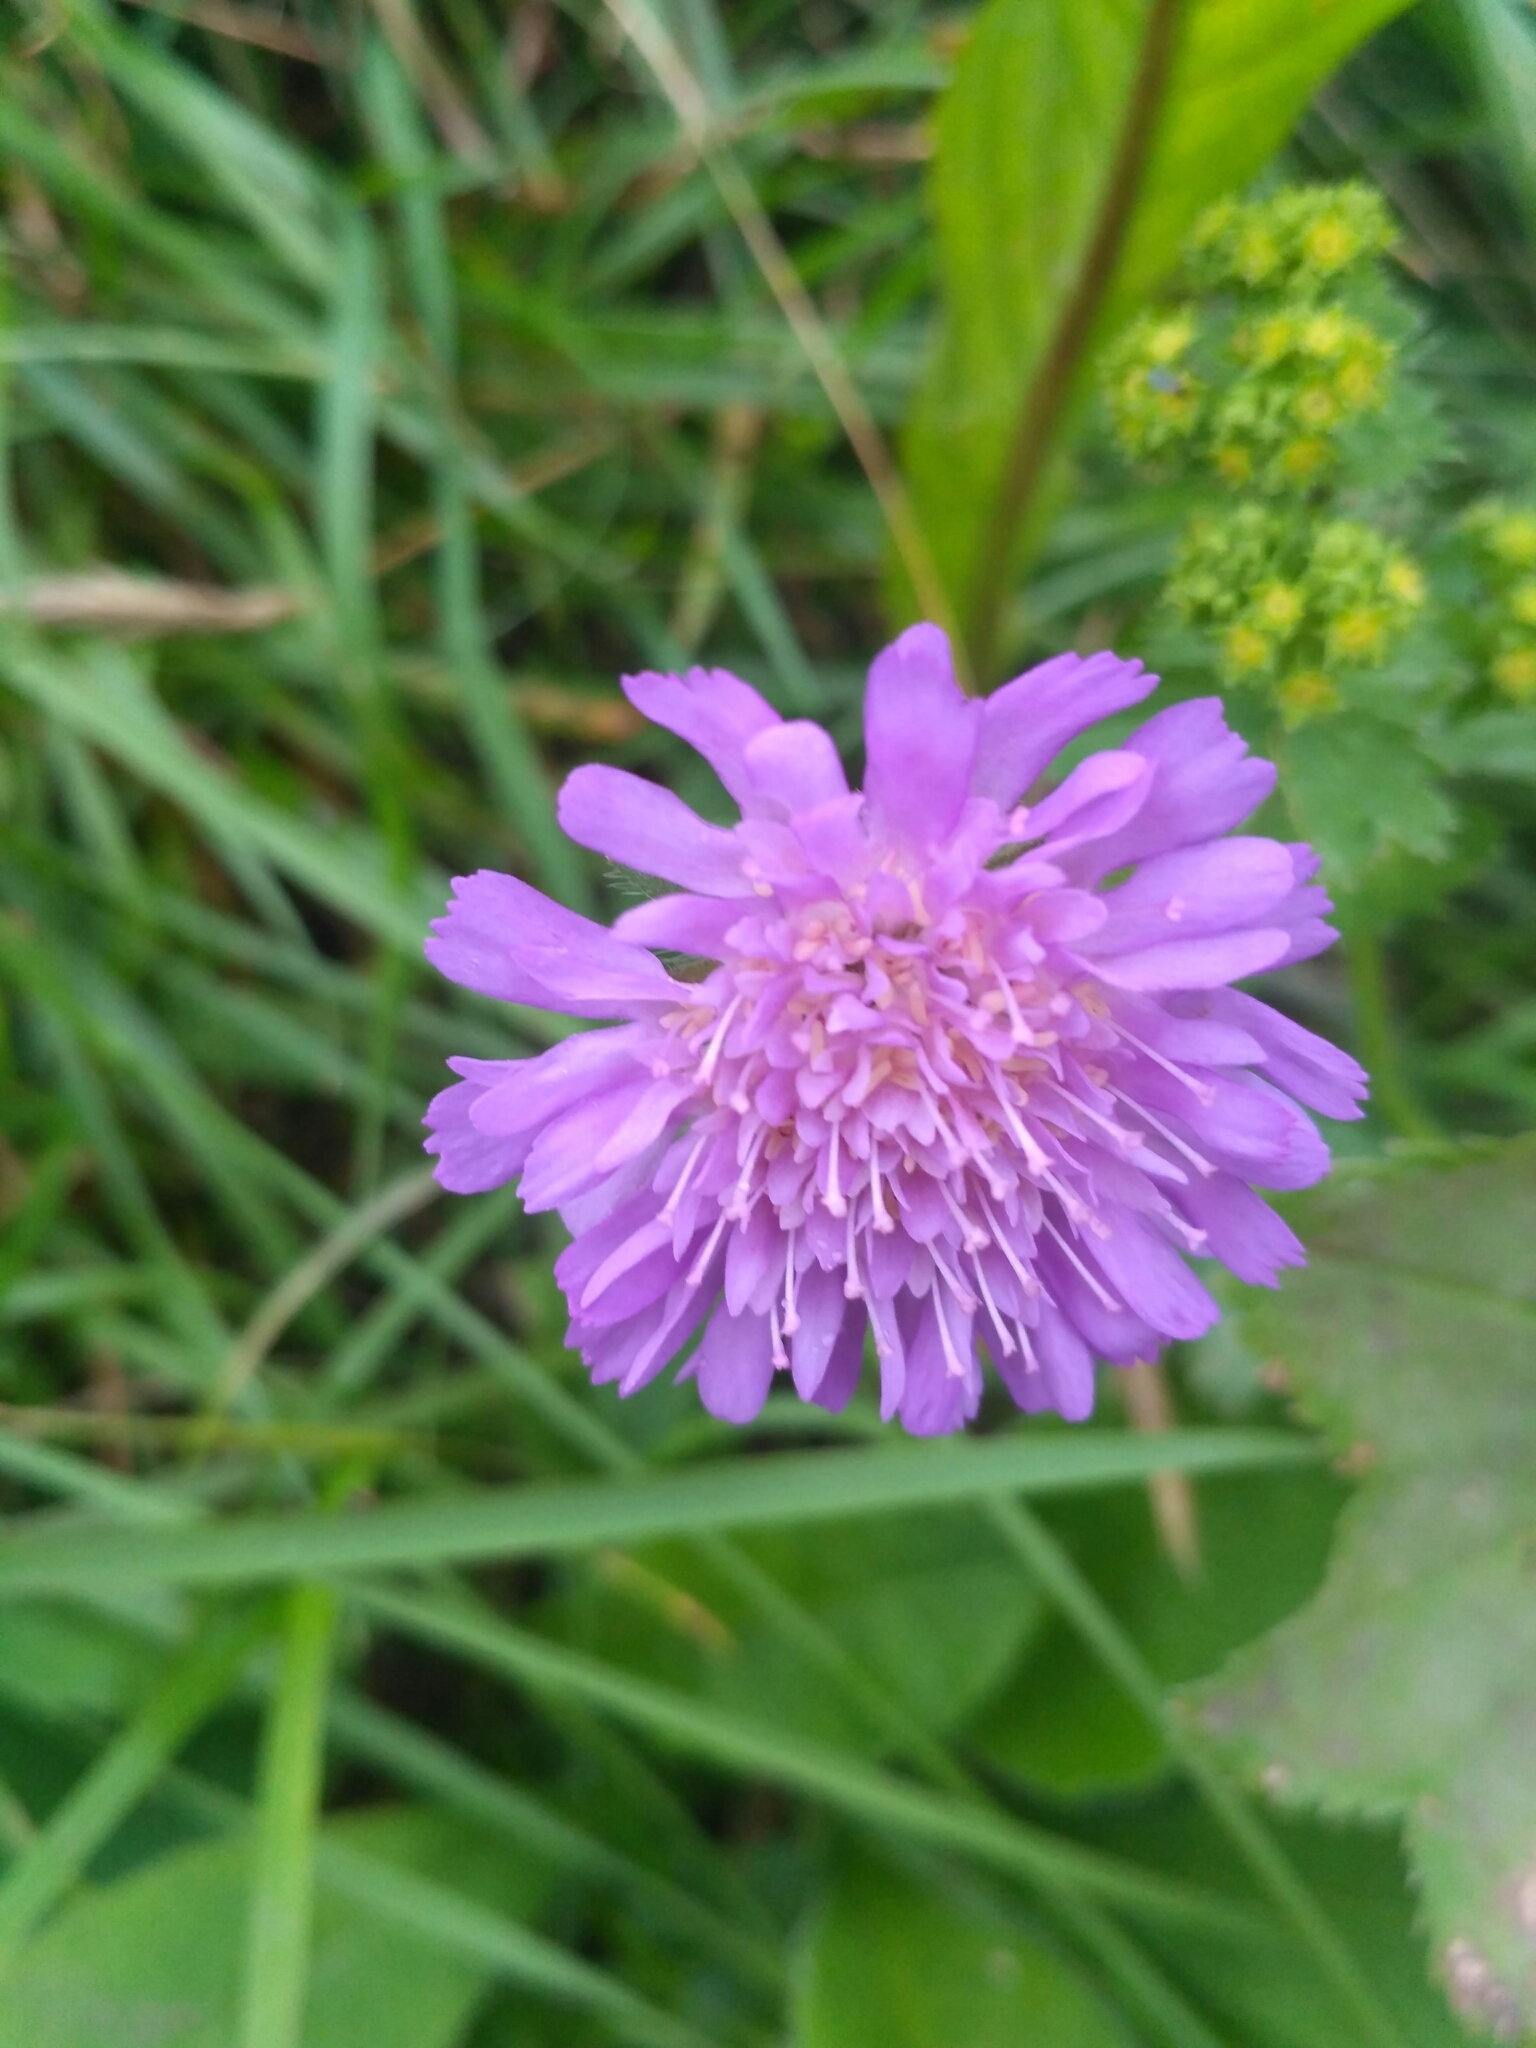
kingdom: Plantae
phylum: Tracheophyta
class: Magnoliopsida
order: Dipsacales
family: Caprifoliaceae
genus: Knautia
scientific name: Knautia arvensis
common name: Field scabiosa
